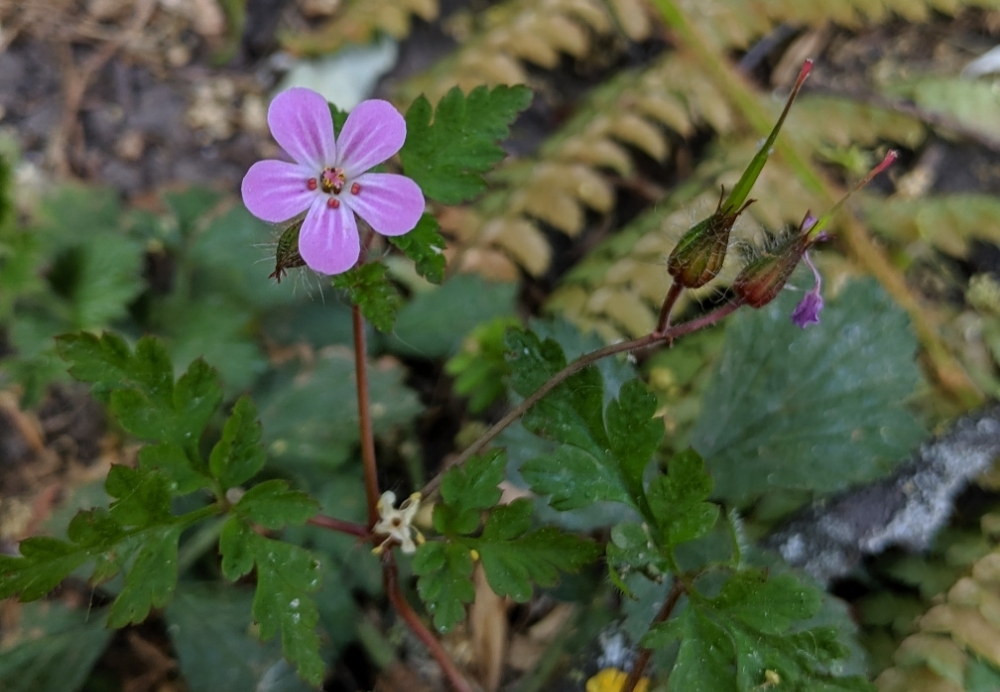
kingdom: Plantae
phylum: Tracheophyta
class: Magnoliopsida
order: Geraniales
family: Geraniaceae
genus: Geranium
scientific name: Geranium robertianum
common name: Herb-robert
